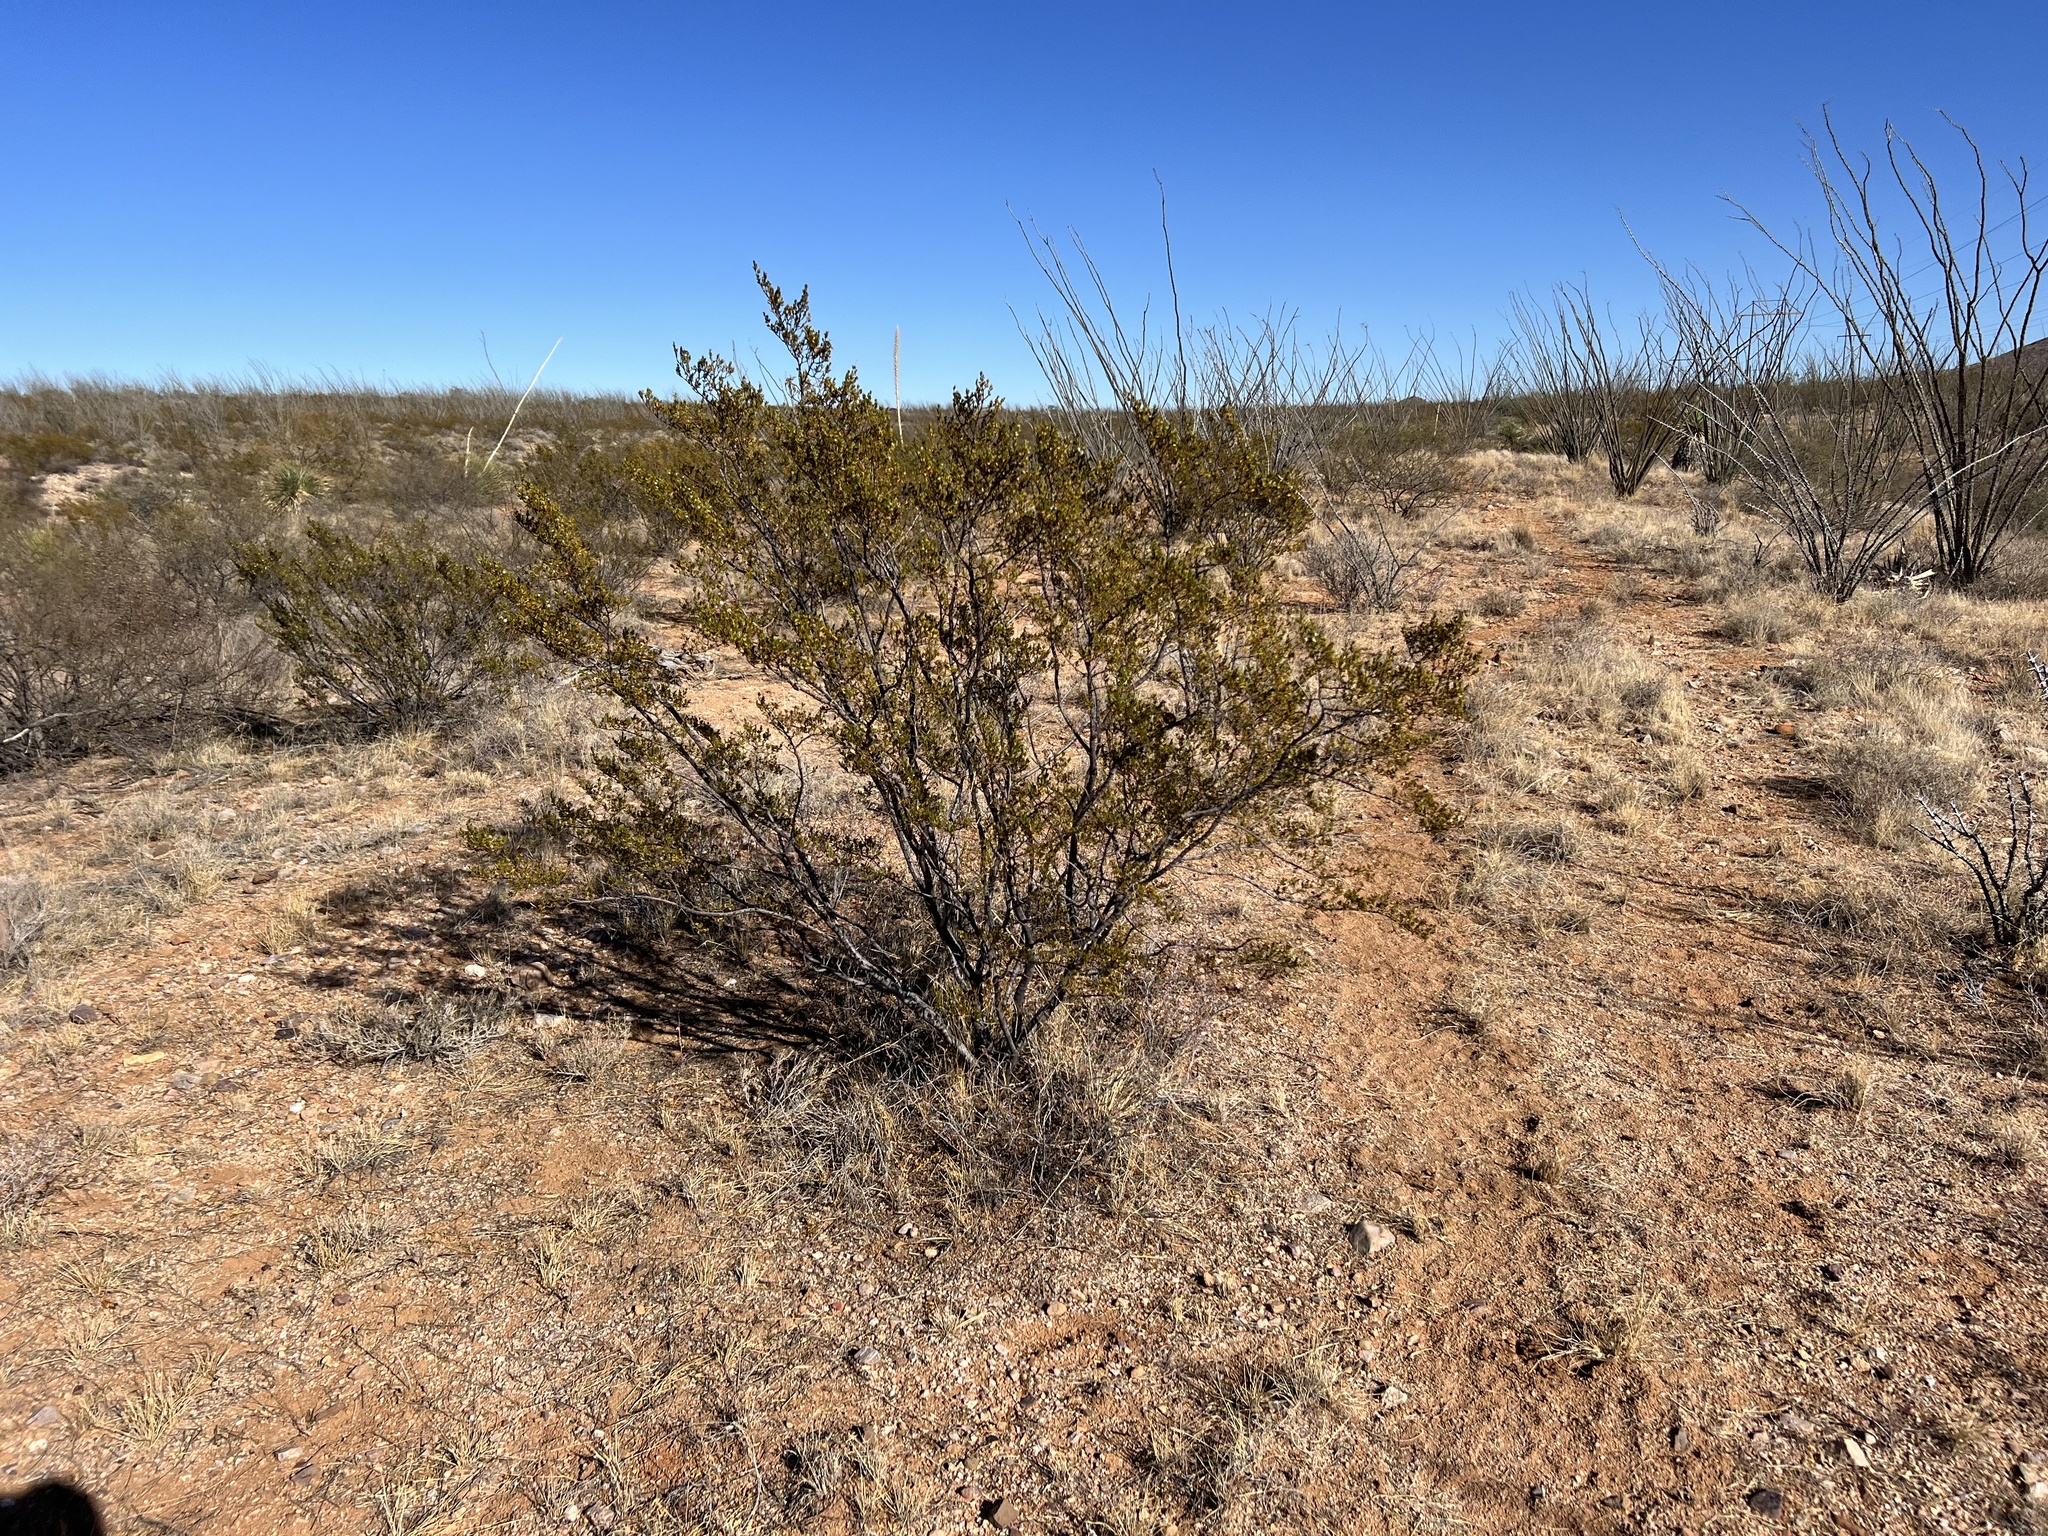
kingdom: Plantae
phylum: Tracheophyta
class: Magnoliopsida
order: Zygophyllales
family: Zygophyllaceae
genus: Larrea
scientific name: Larrea tridentata
